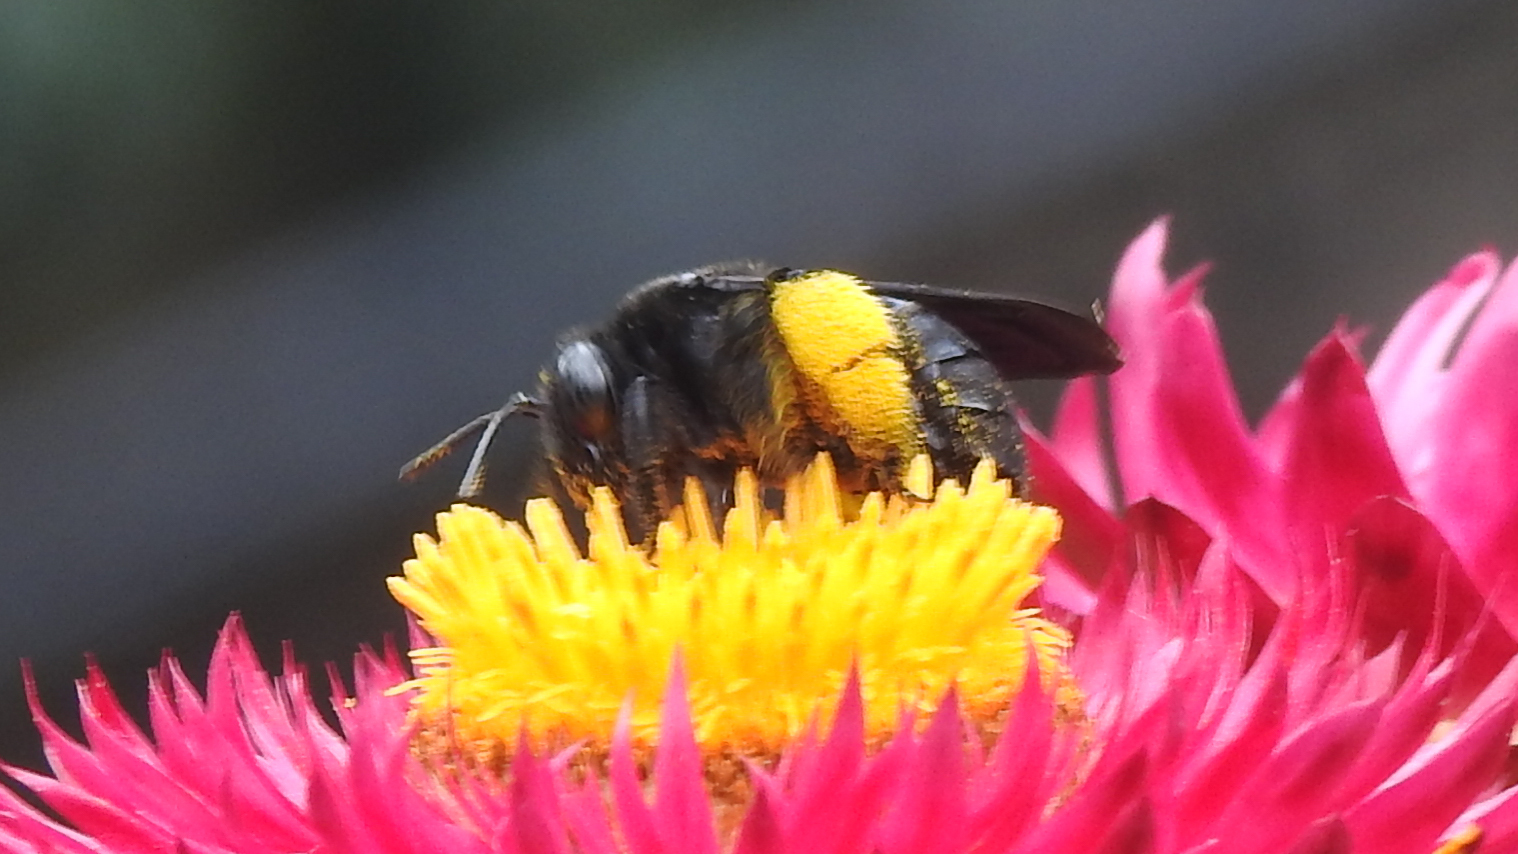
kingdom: Animalia
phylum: Arthropoda
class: Insecta
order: Hymenoptera
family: Apidae
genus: Melissodes
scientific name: Melissodes bimaculatus
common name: Two-spotted long-horned bee
